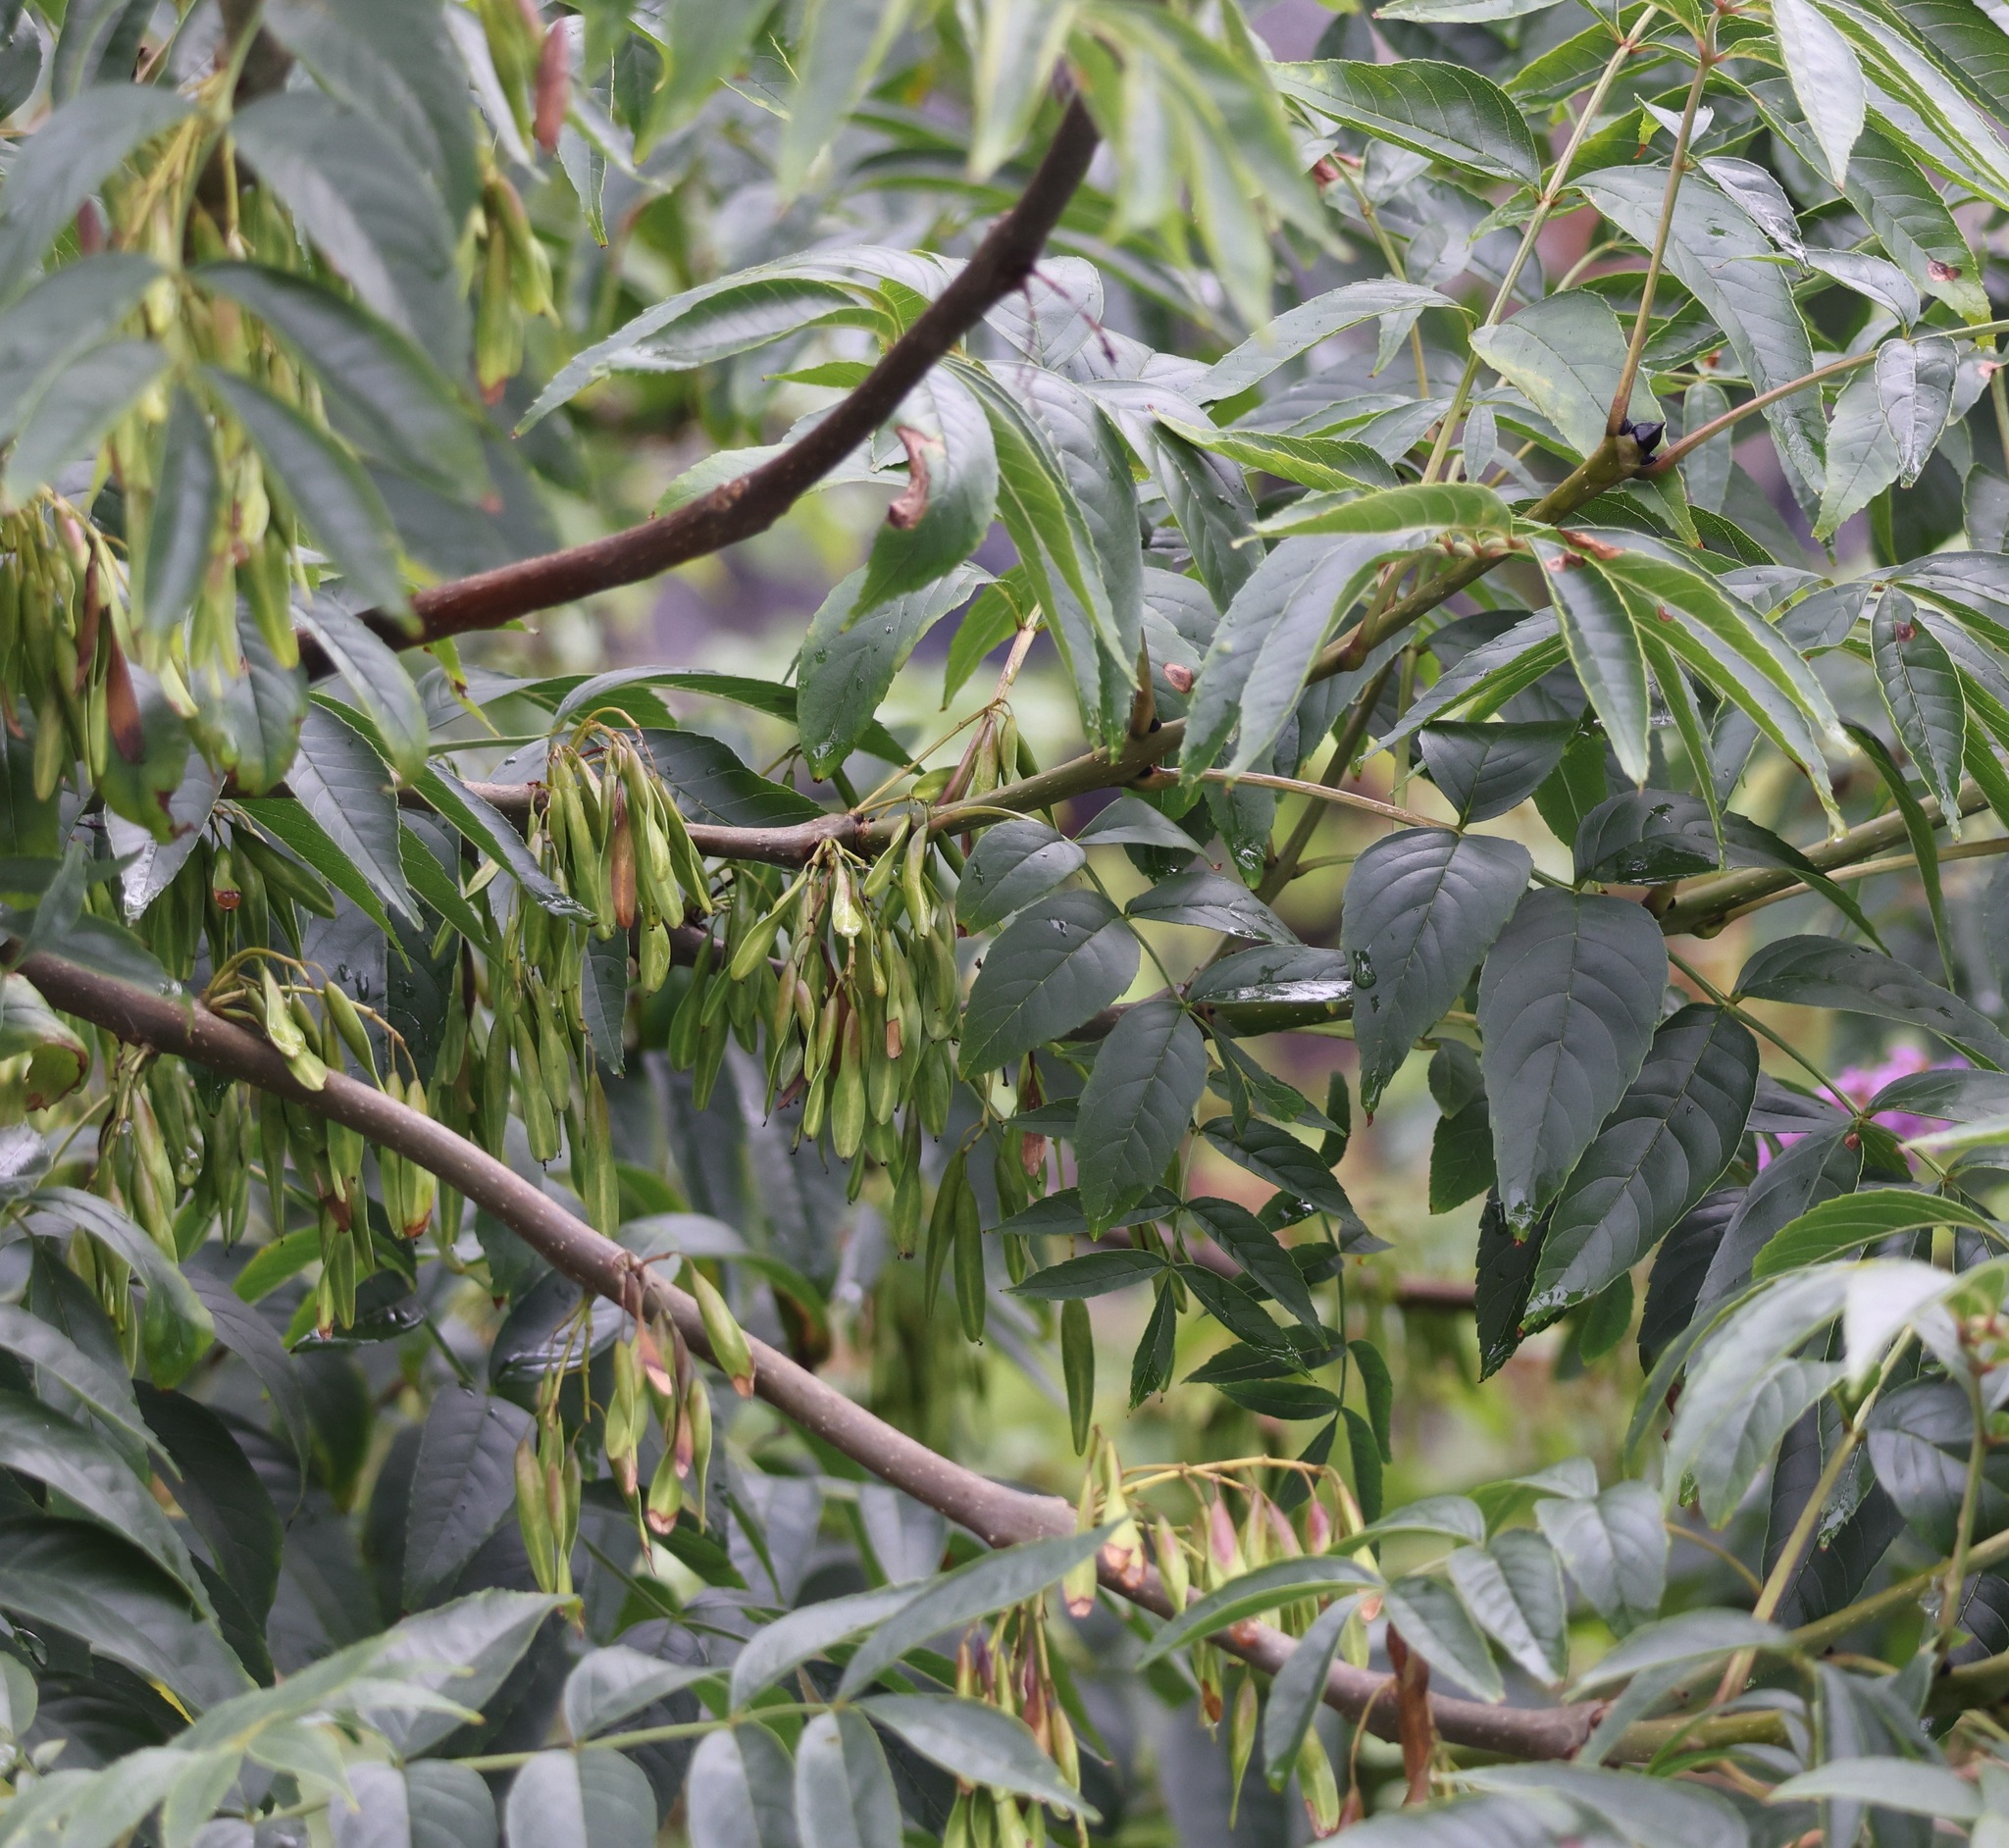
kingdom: Plantae
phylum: Tracheophyta
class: Magnoliopsida
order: Lamiales
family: Oleaceae
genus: Fraxinus
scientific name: Fraxinus excelsior
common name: European ash
